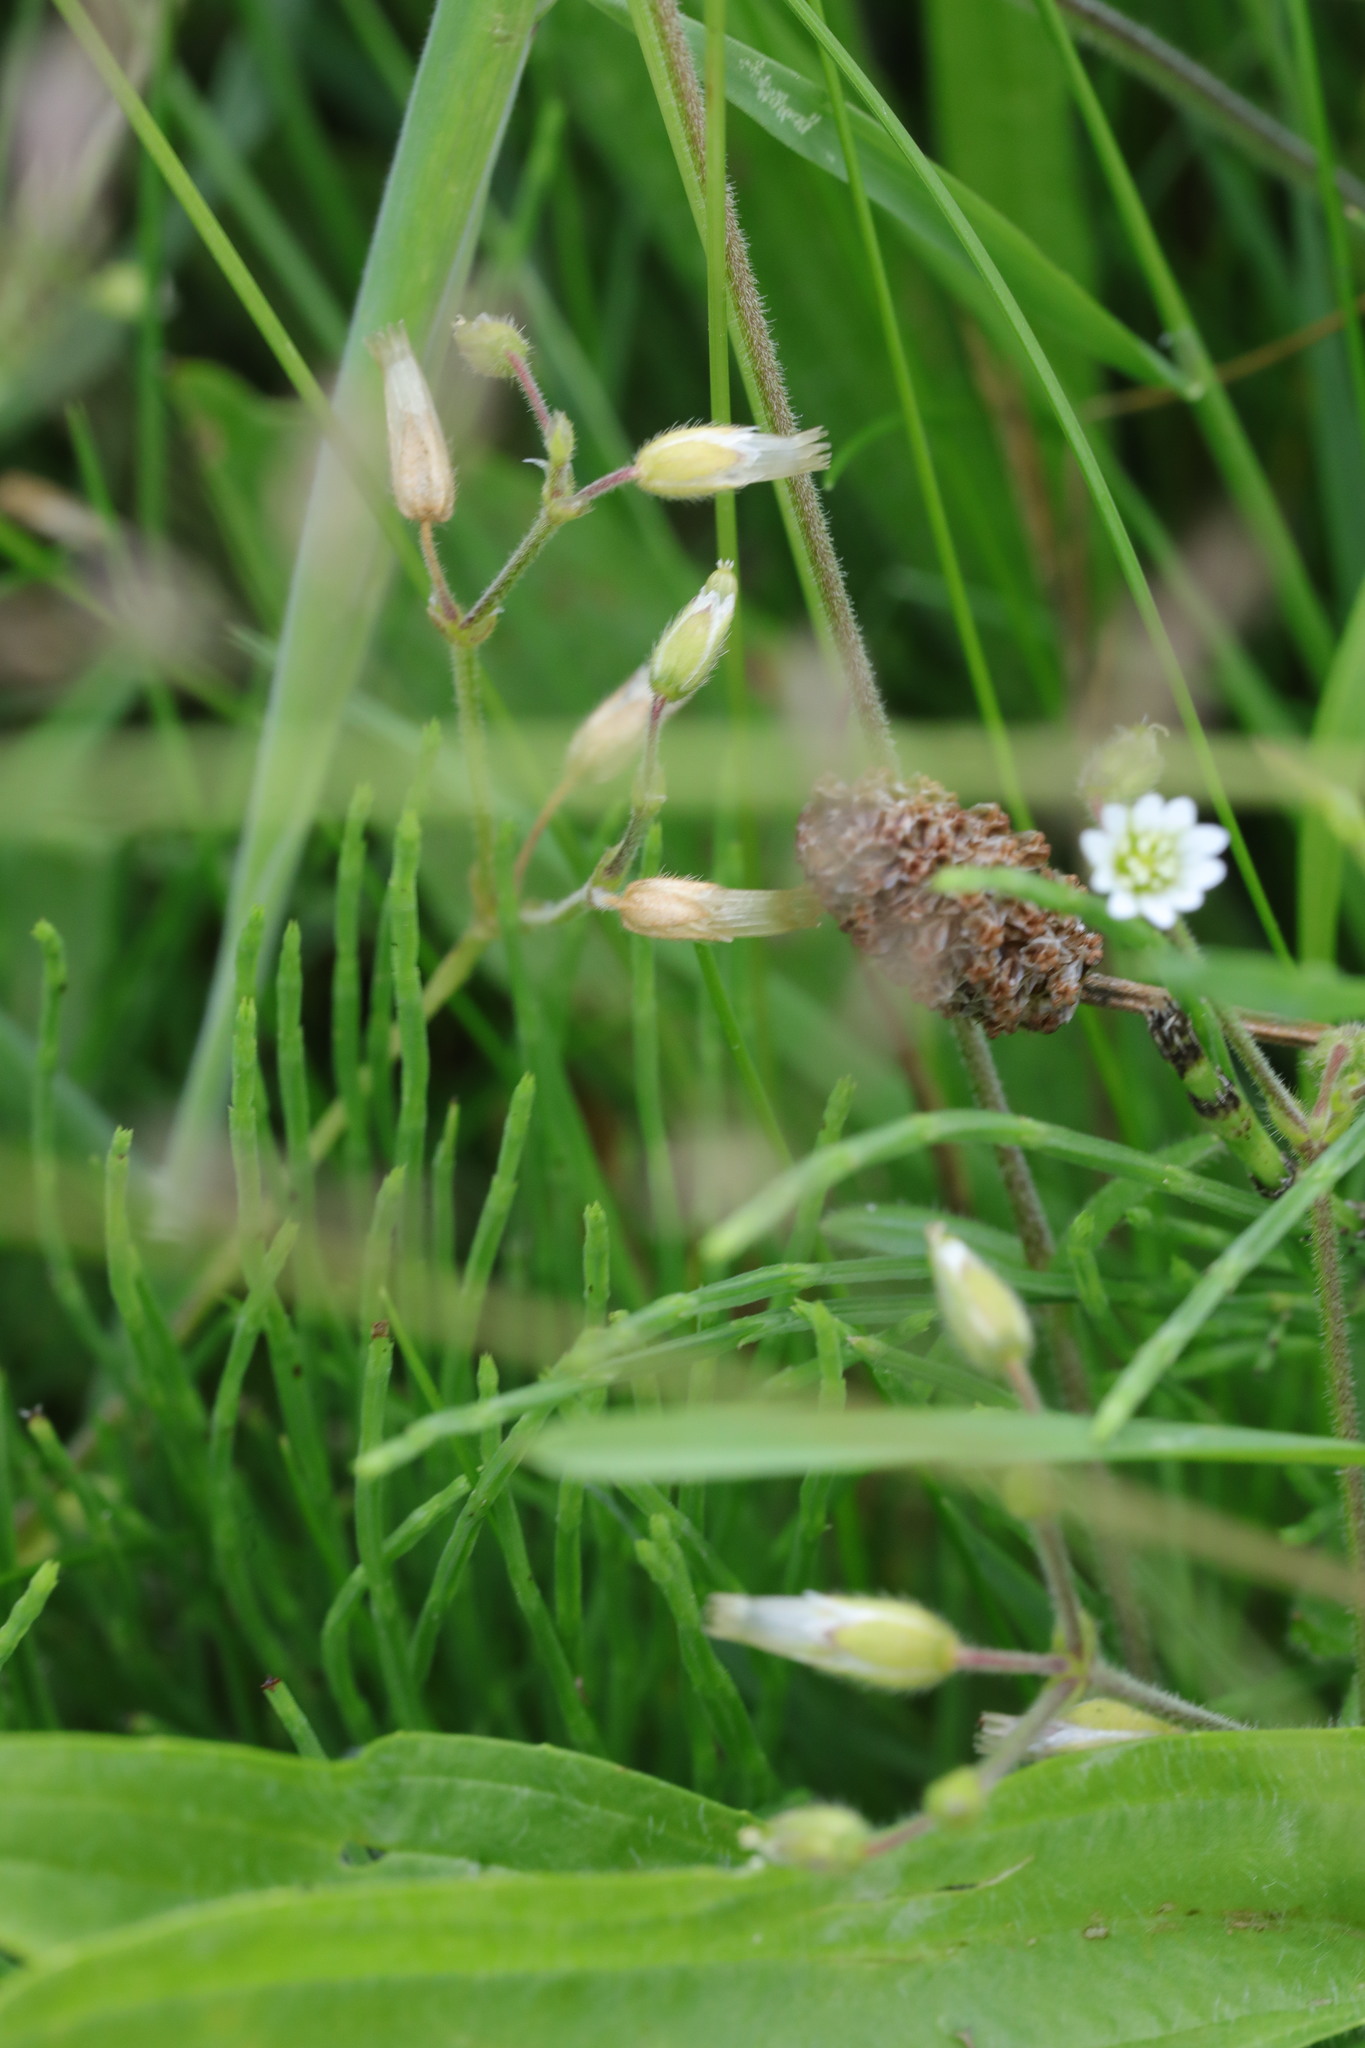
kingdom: Plantae
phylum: Tracheophyta
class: Magnoliopsida
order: Caryophyllales
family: Caryophyllaceae
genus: Cerastium
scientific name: Cerastium fontanum
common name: Common mouse-ear
